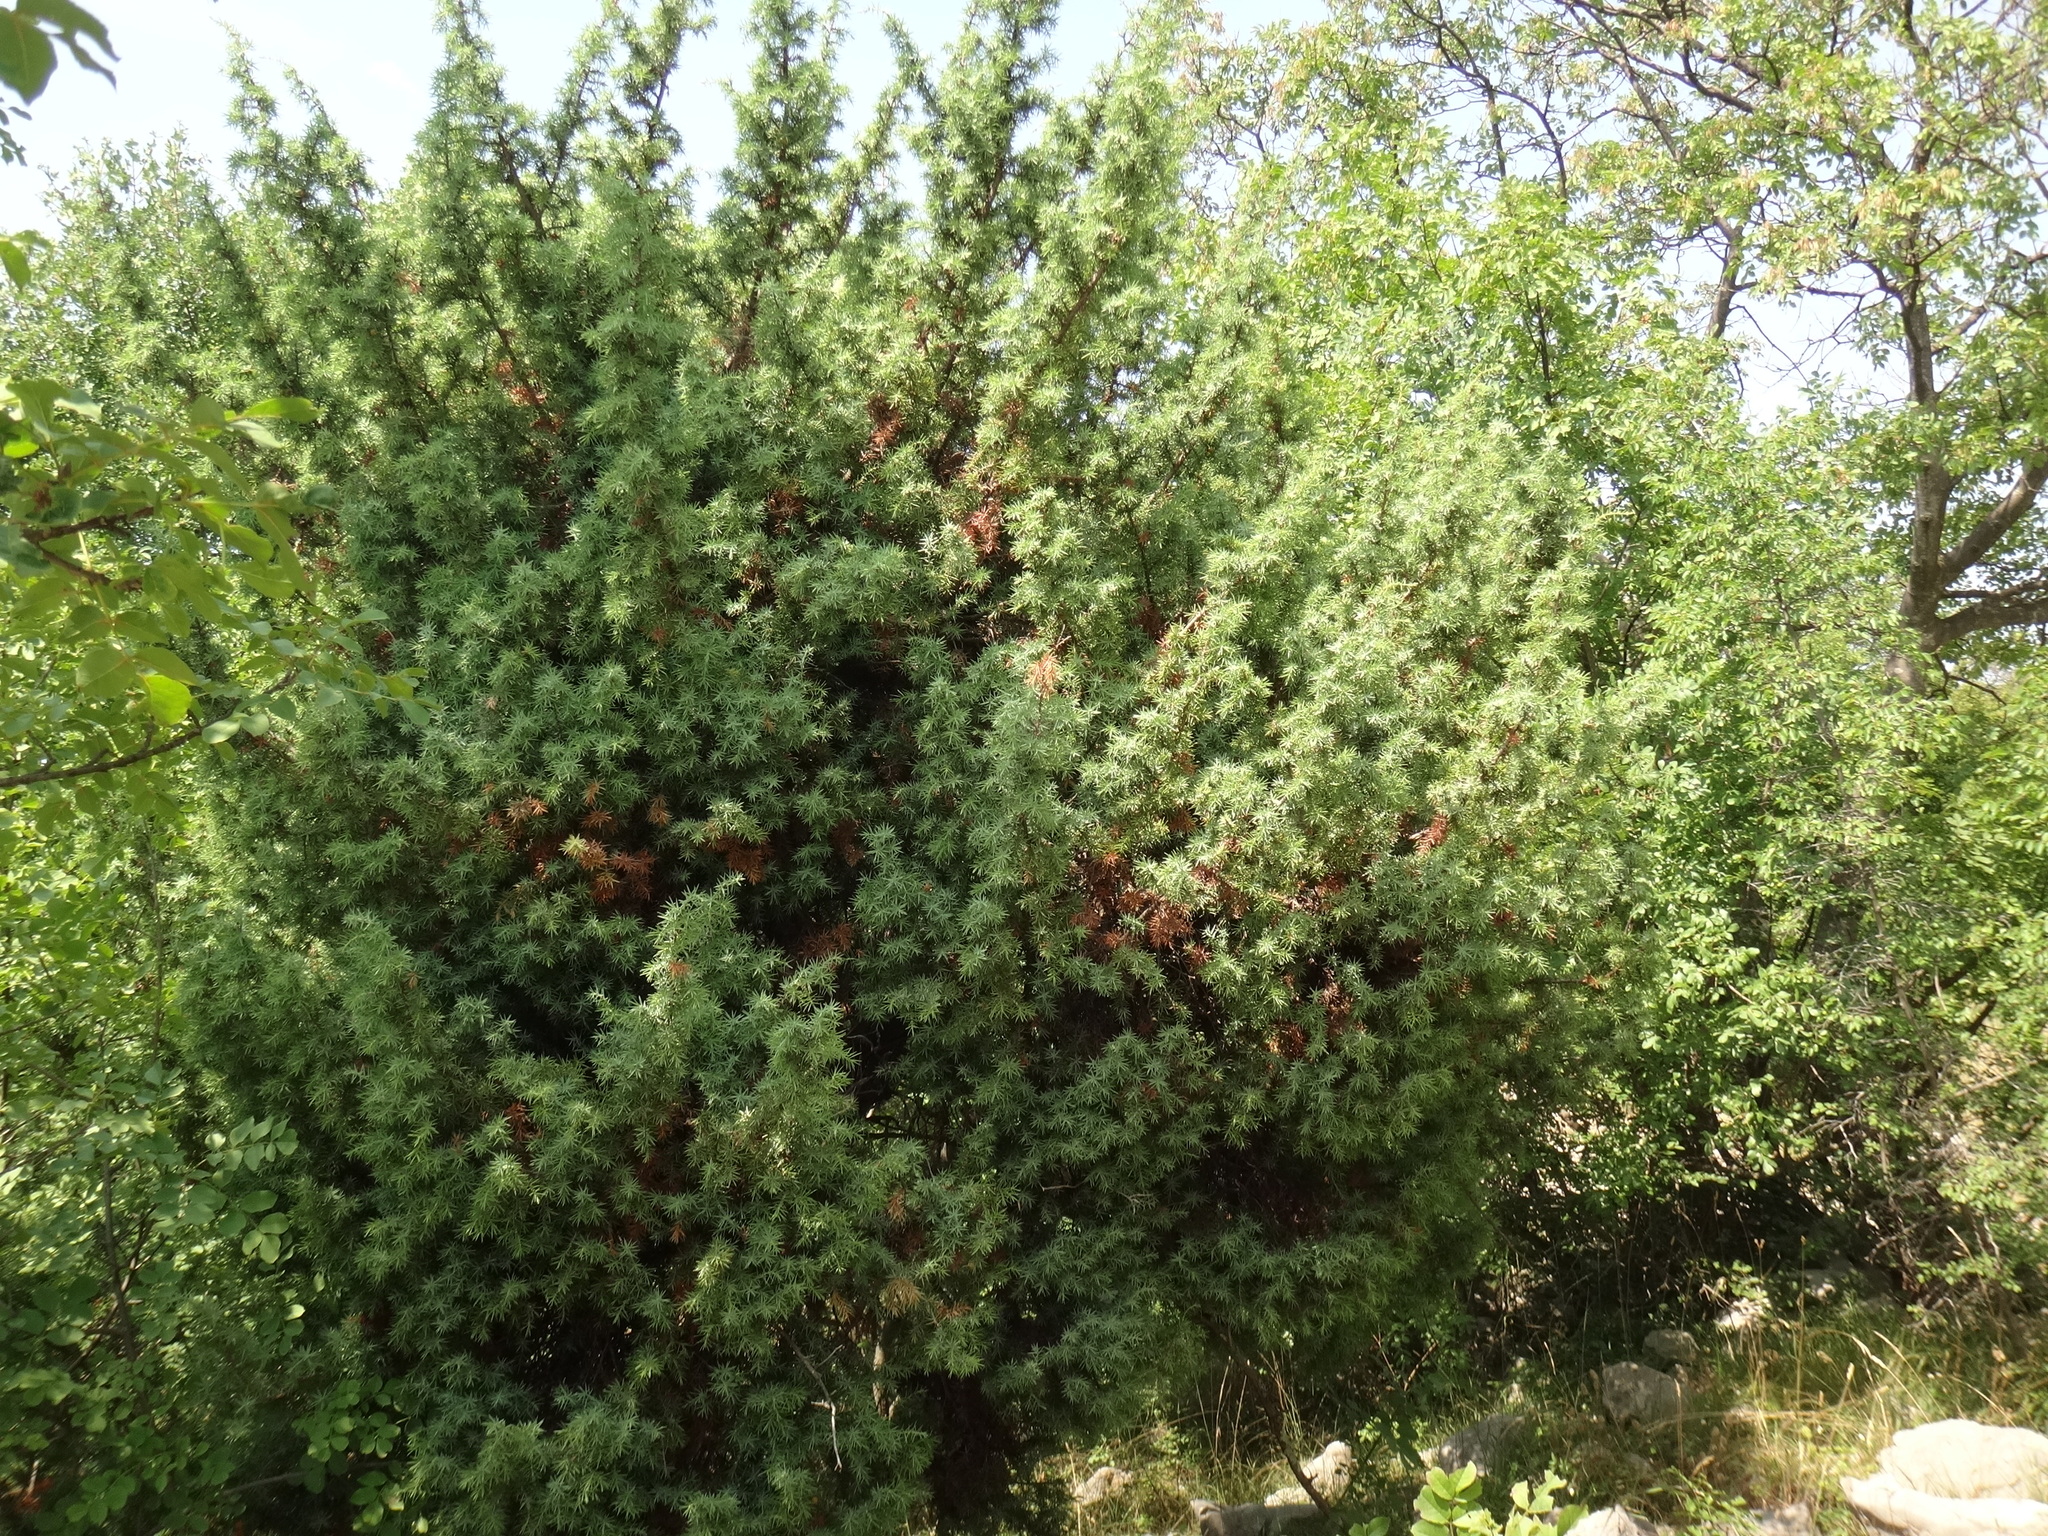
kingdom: Plantae
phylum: Tracheophyta
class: Pinopsida
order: Pinales
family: Cupressaceae
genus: Juniperus
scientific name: Juniperus oxycedrus
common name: Prickly juniper
